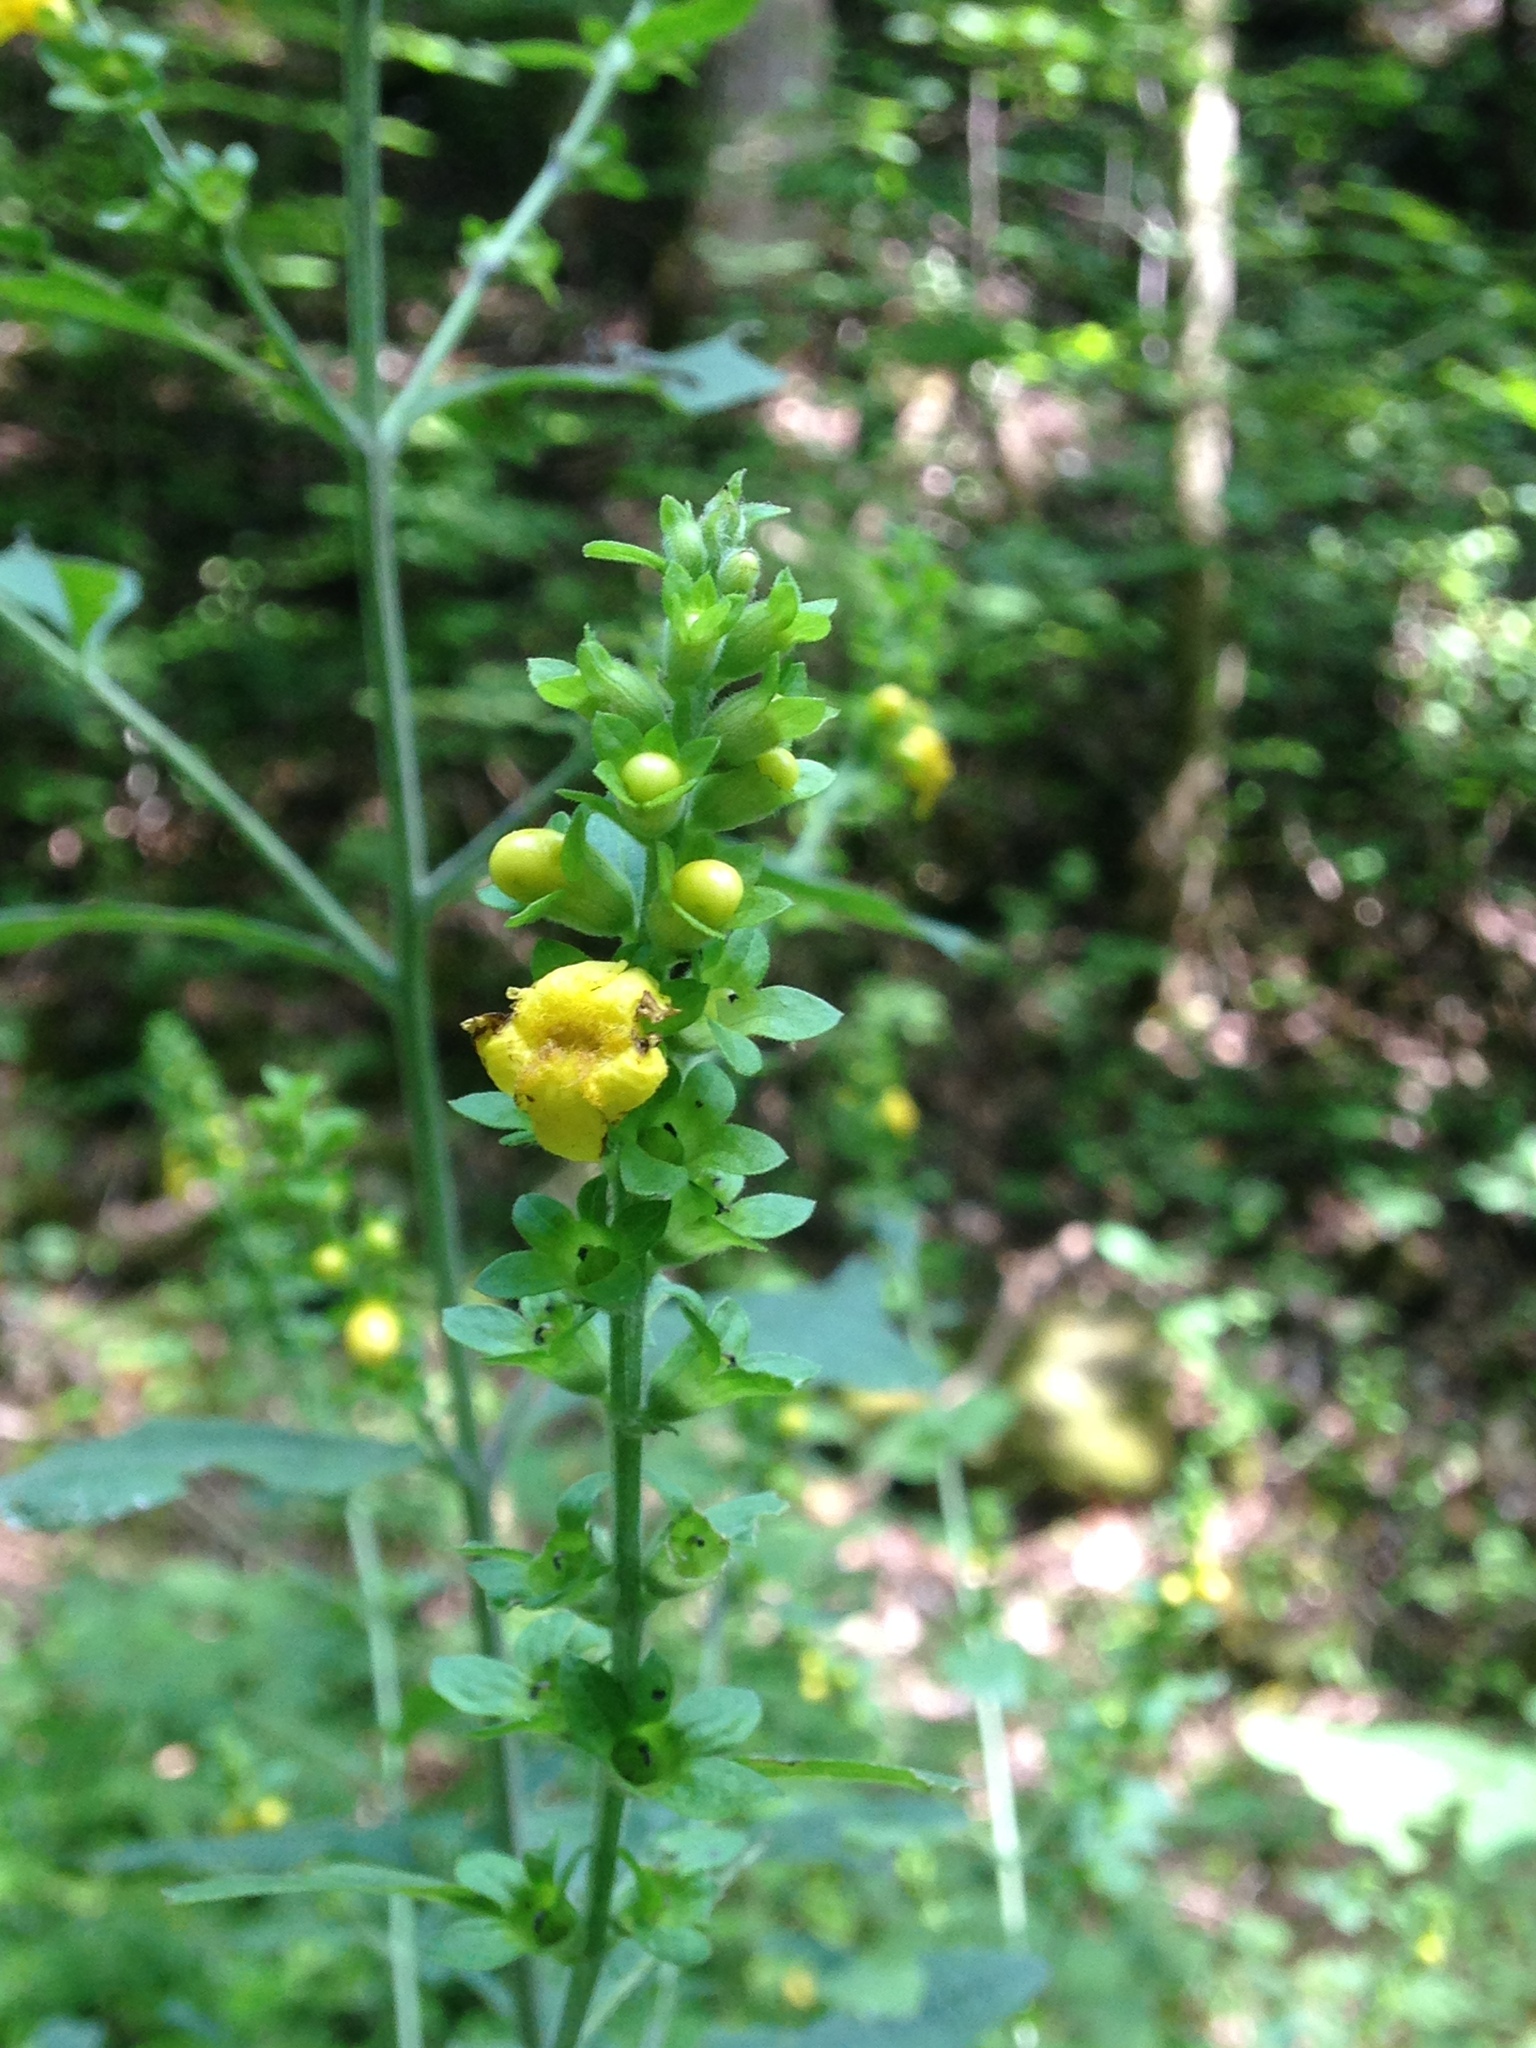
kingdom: Plantae
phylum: Tracheophyta
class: Magnoliopsida
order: Lamiales
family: Orobanchaceae
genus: Dasistoma
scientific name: Dasistoma macrophyllum
